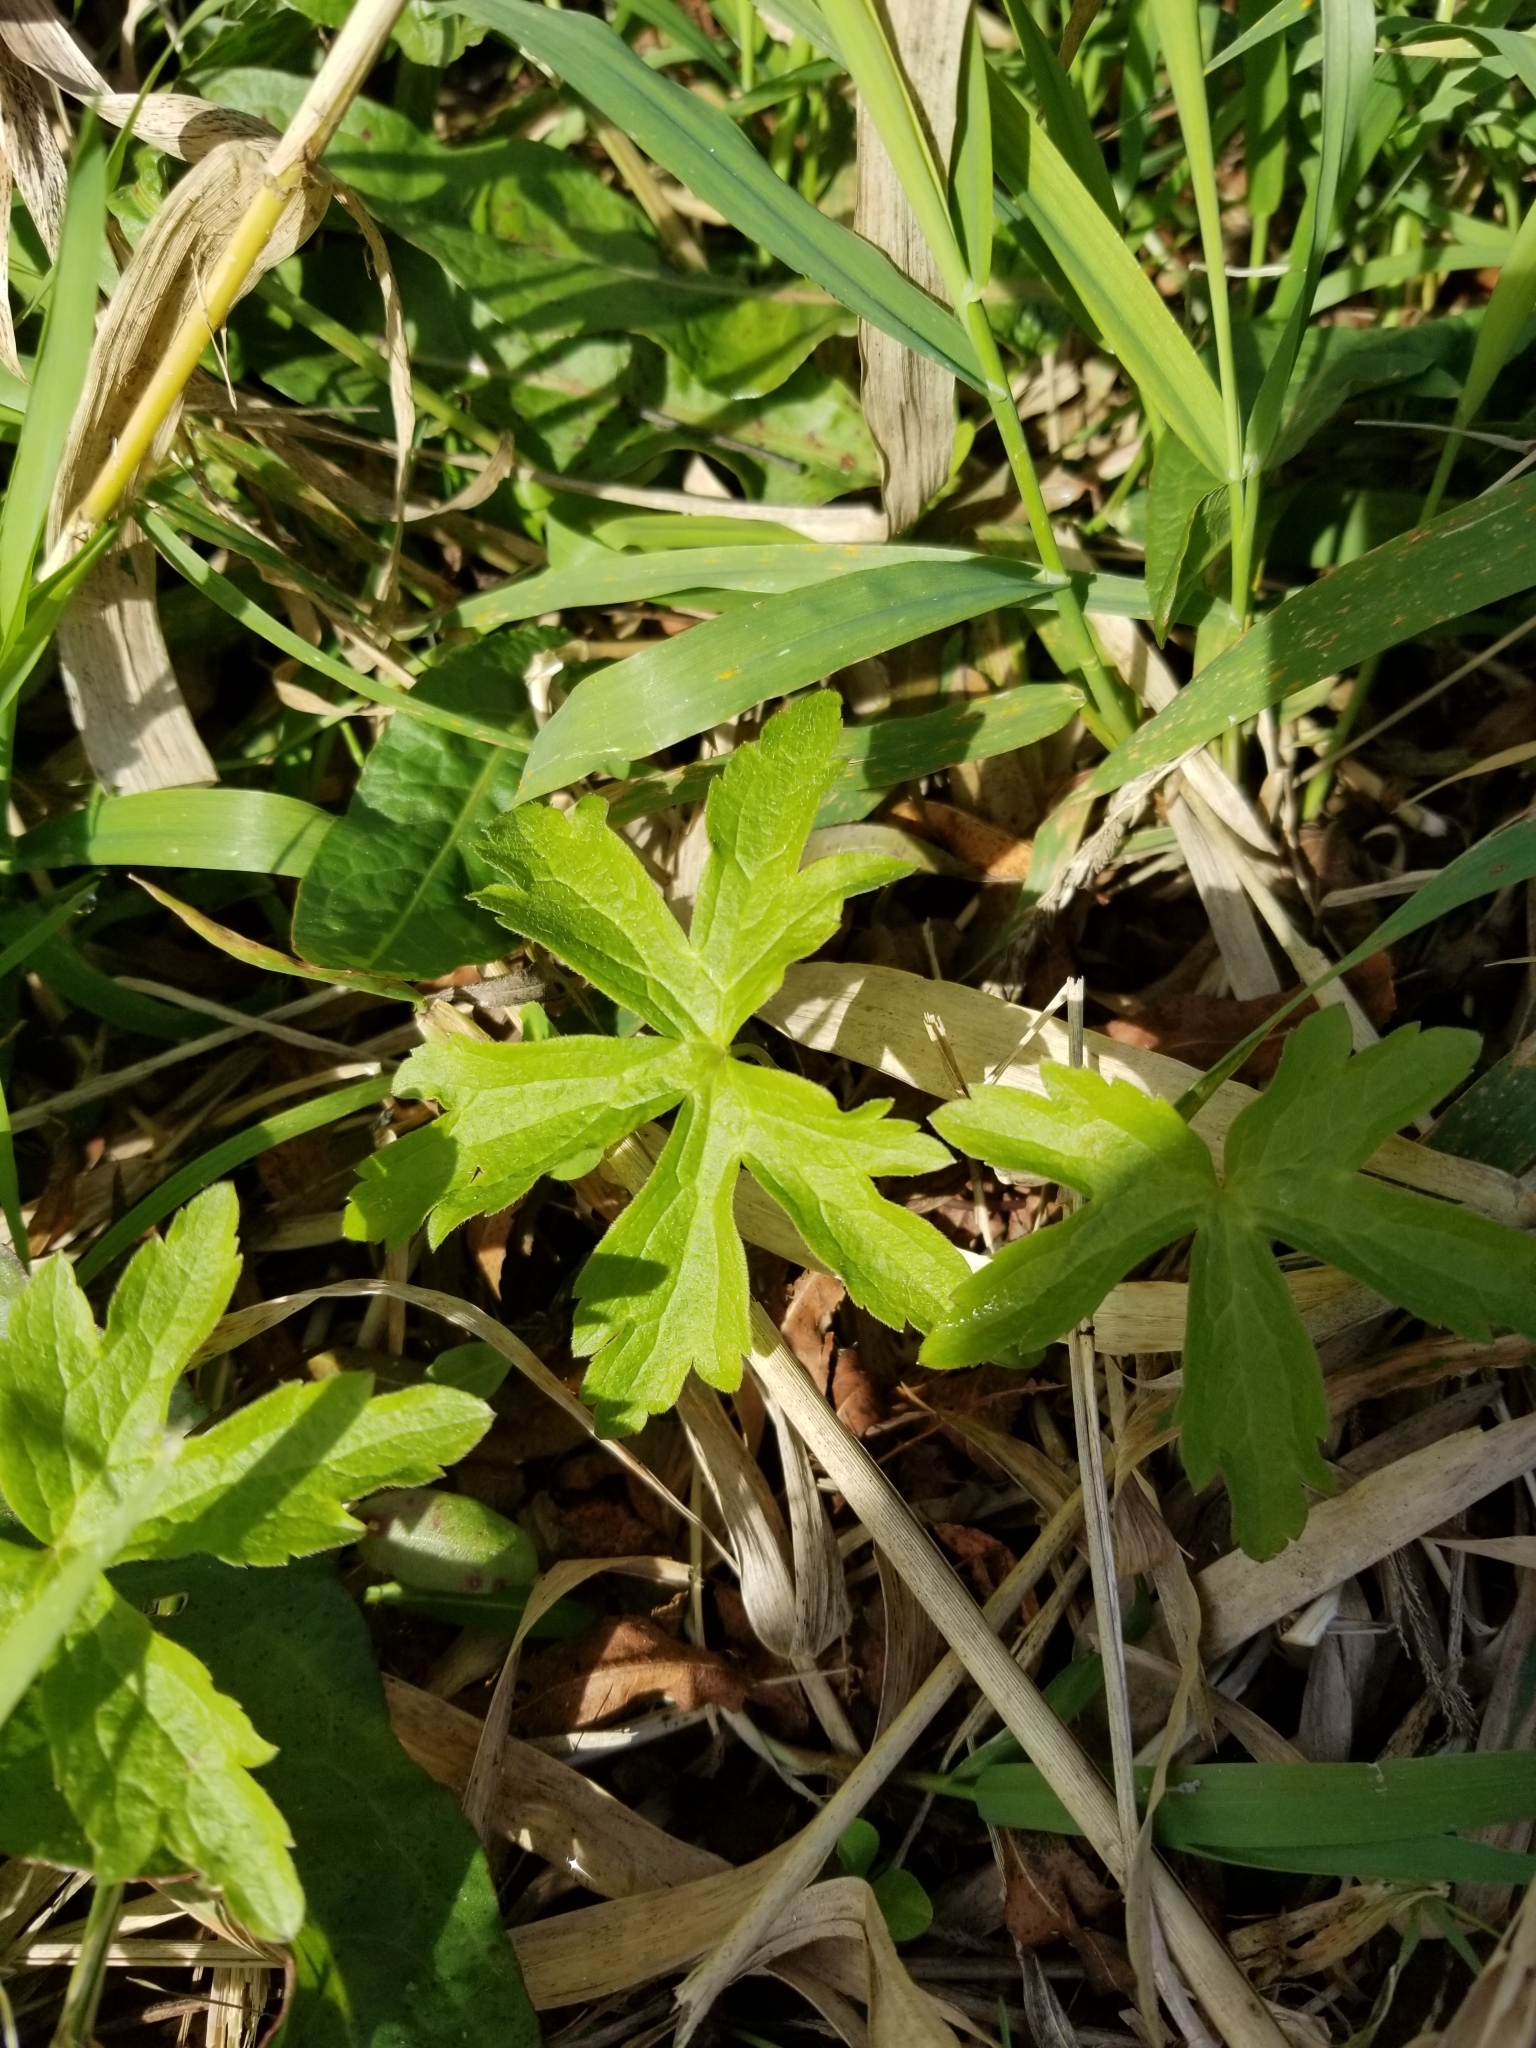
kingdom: Plantae
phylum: Tracheophyta
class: Magnoliopsida
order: Geraniales
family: Geraniaceae
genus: Geranium
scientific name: Geranium maculatum
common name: Spotted geranium
